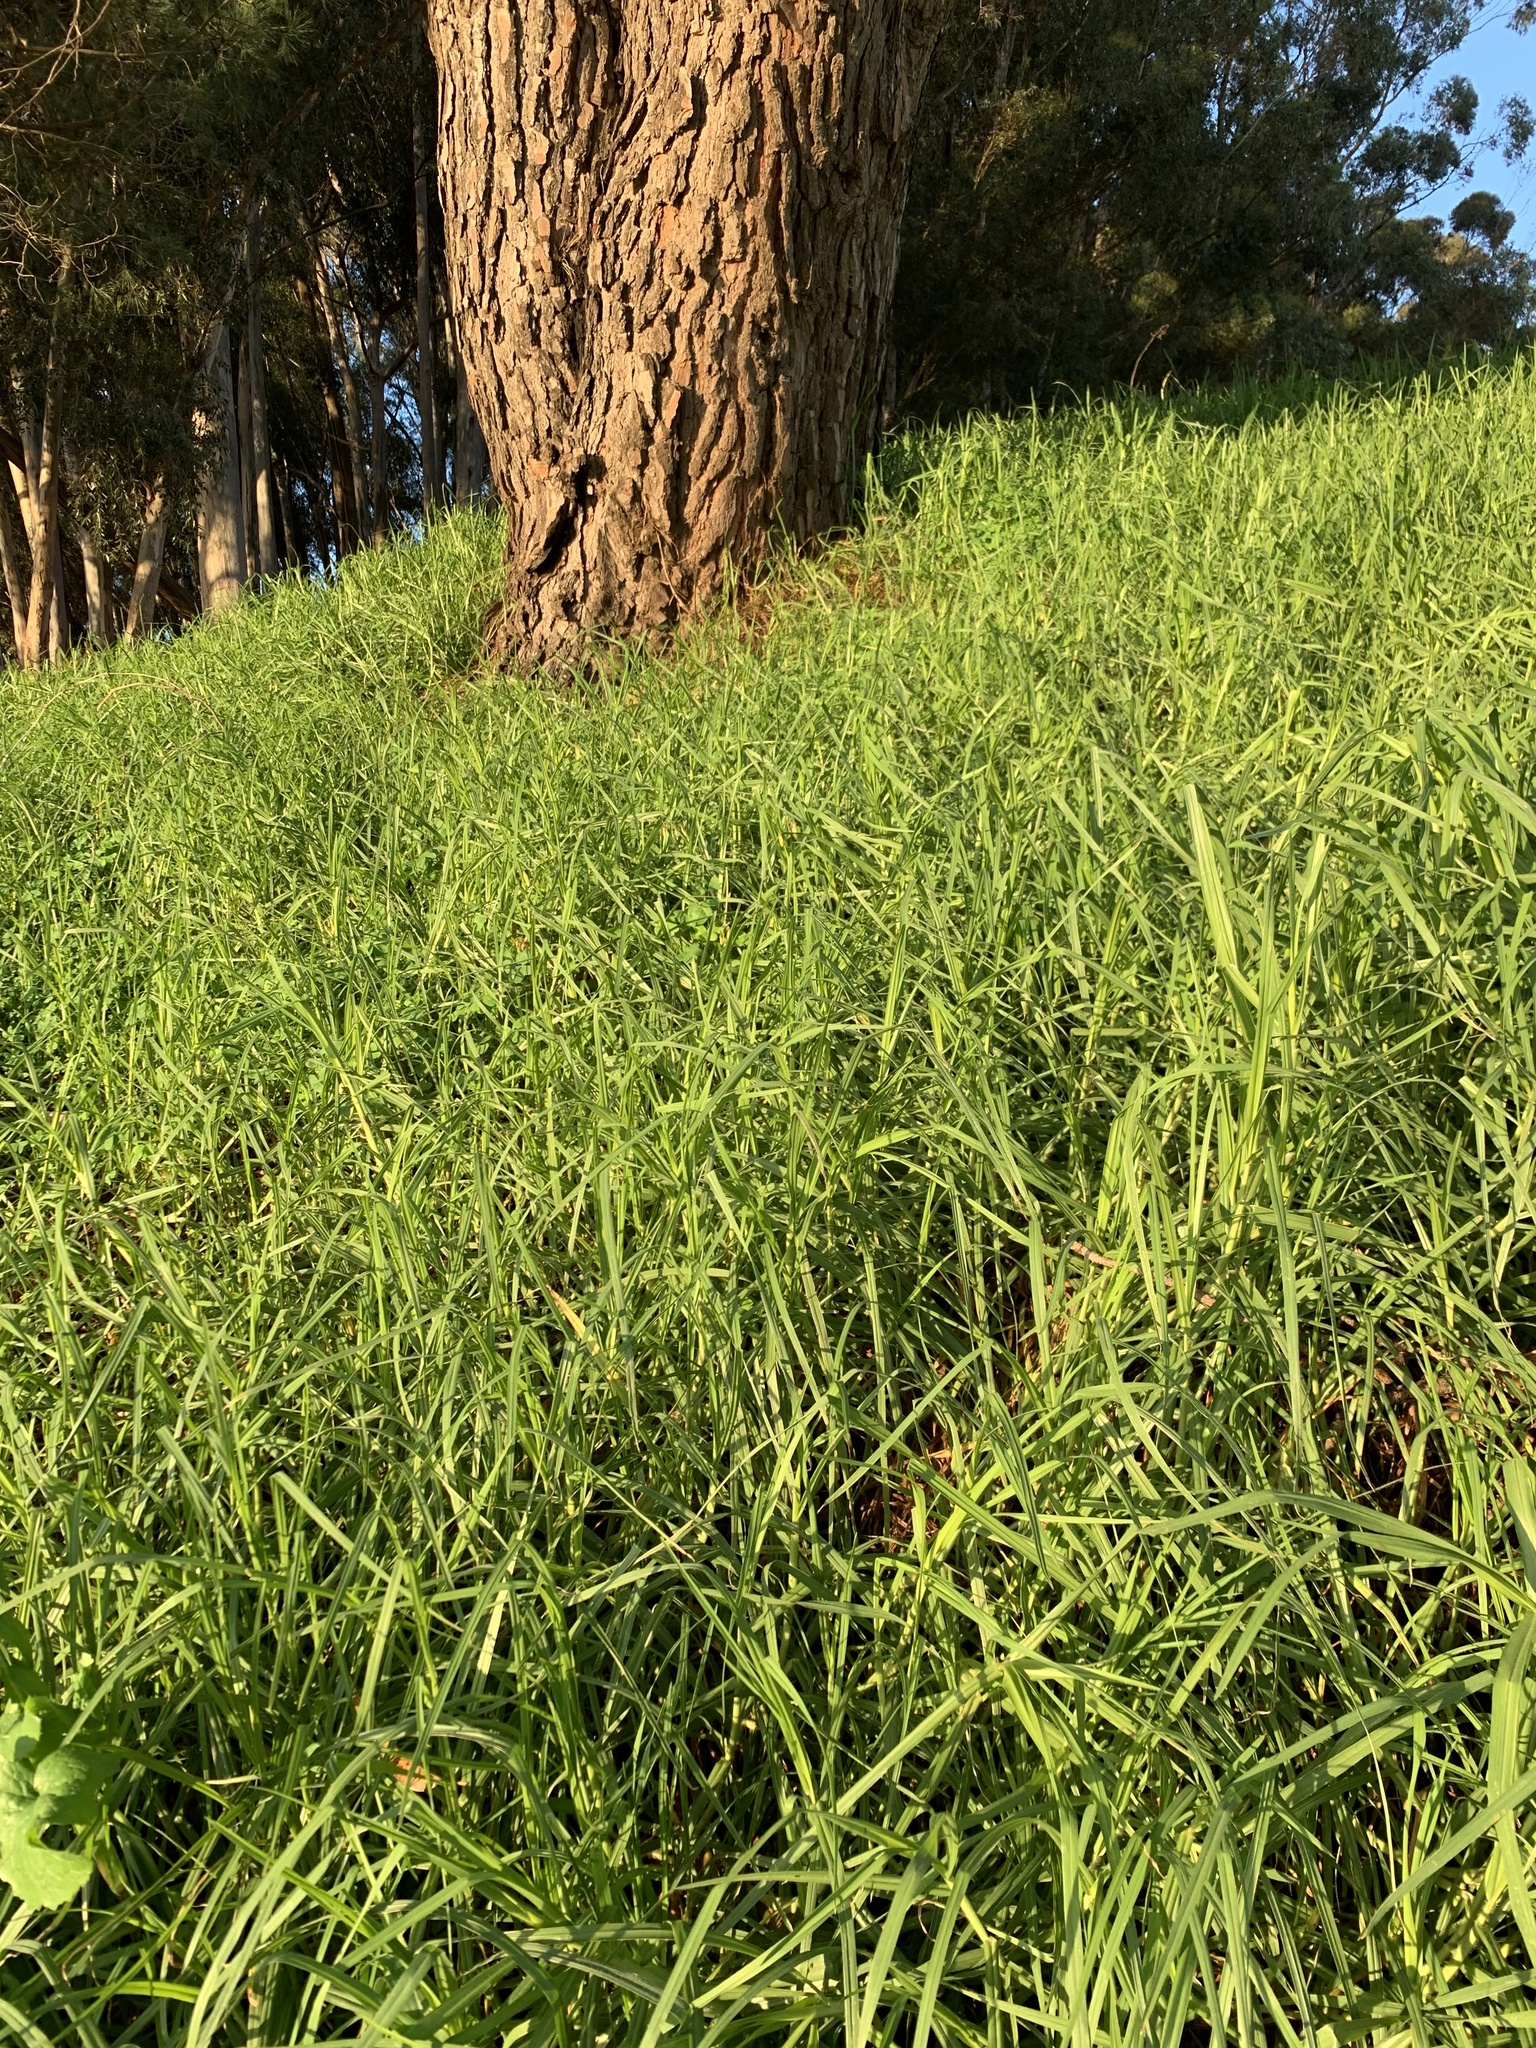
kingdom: Plantae
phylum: Tracheophyta
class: Liliopsida
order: Poales
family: Poaceae
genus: Cenchrus
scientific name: Cenchrus clandestinus
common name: Kikuyugrass
